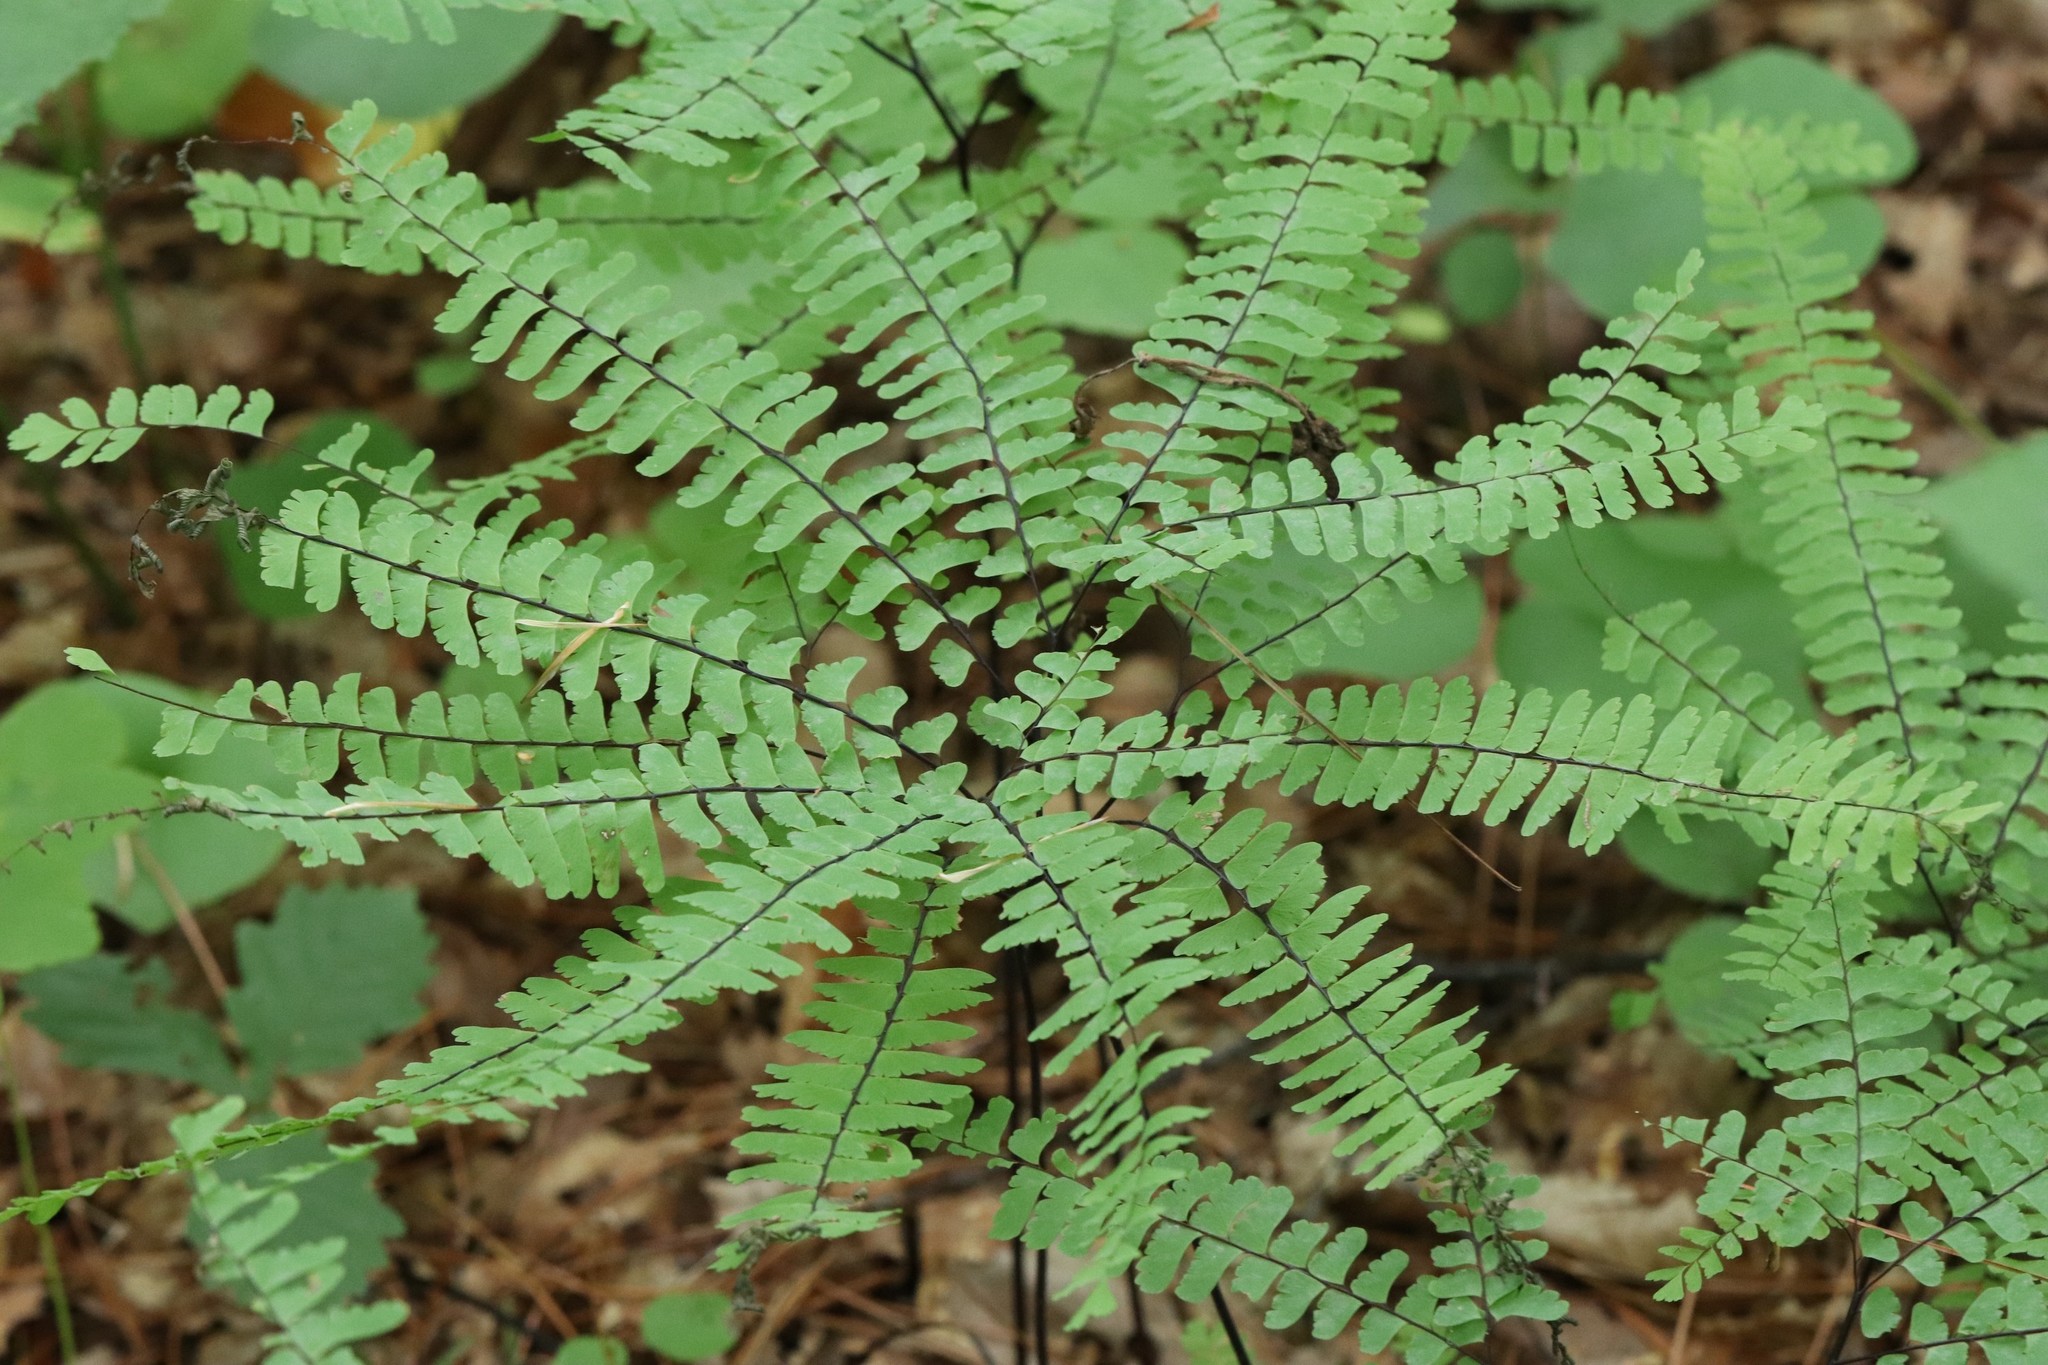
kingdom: Plantae
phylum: Tracheophyta
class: Polypodiopsida
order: Polypodiales
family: Pteridaceae
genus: Adiantum
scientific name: Adiantum pedatum
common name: Five-finger fern
